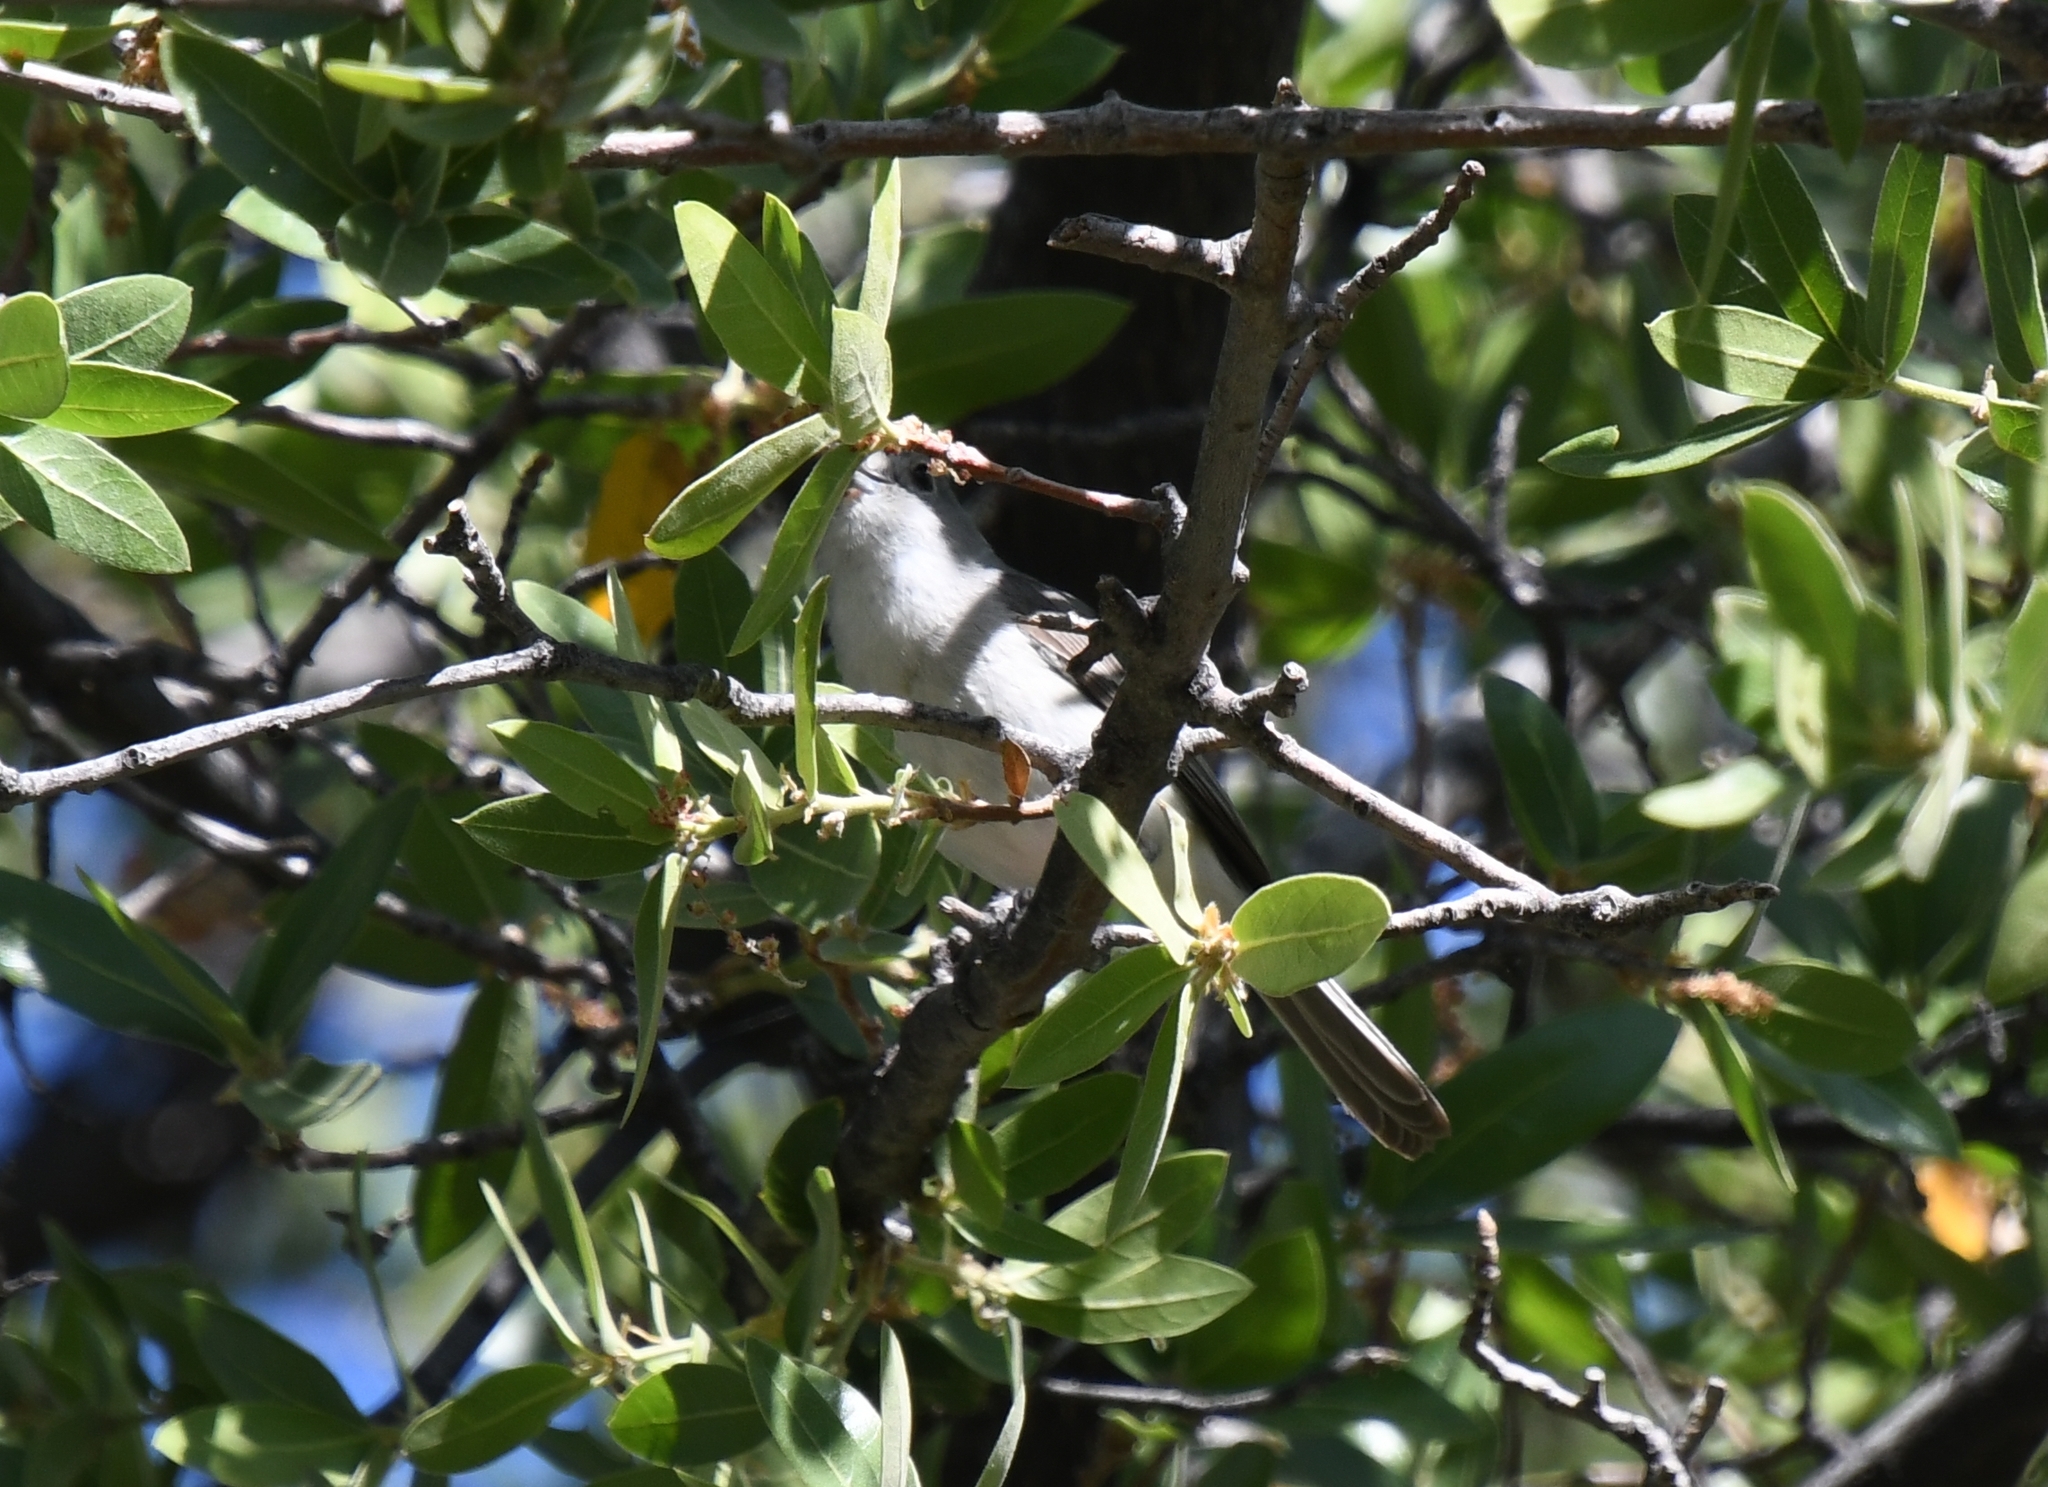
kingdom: Animalia
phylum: Chordata
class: Aves
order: Passeriformes
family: Vireonidae
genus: Vireo
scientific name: Vireo vicinior
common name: Gray vireo
